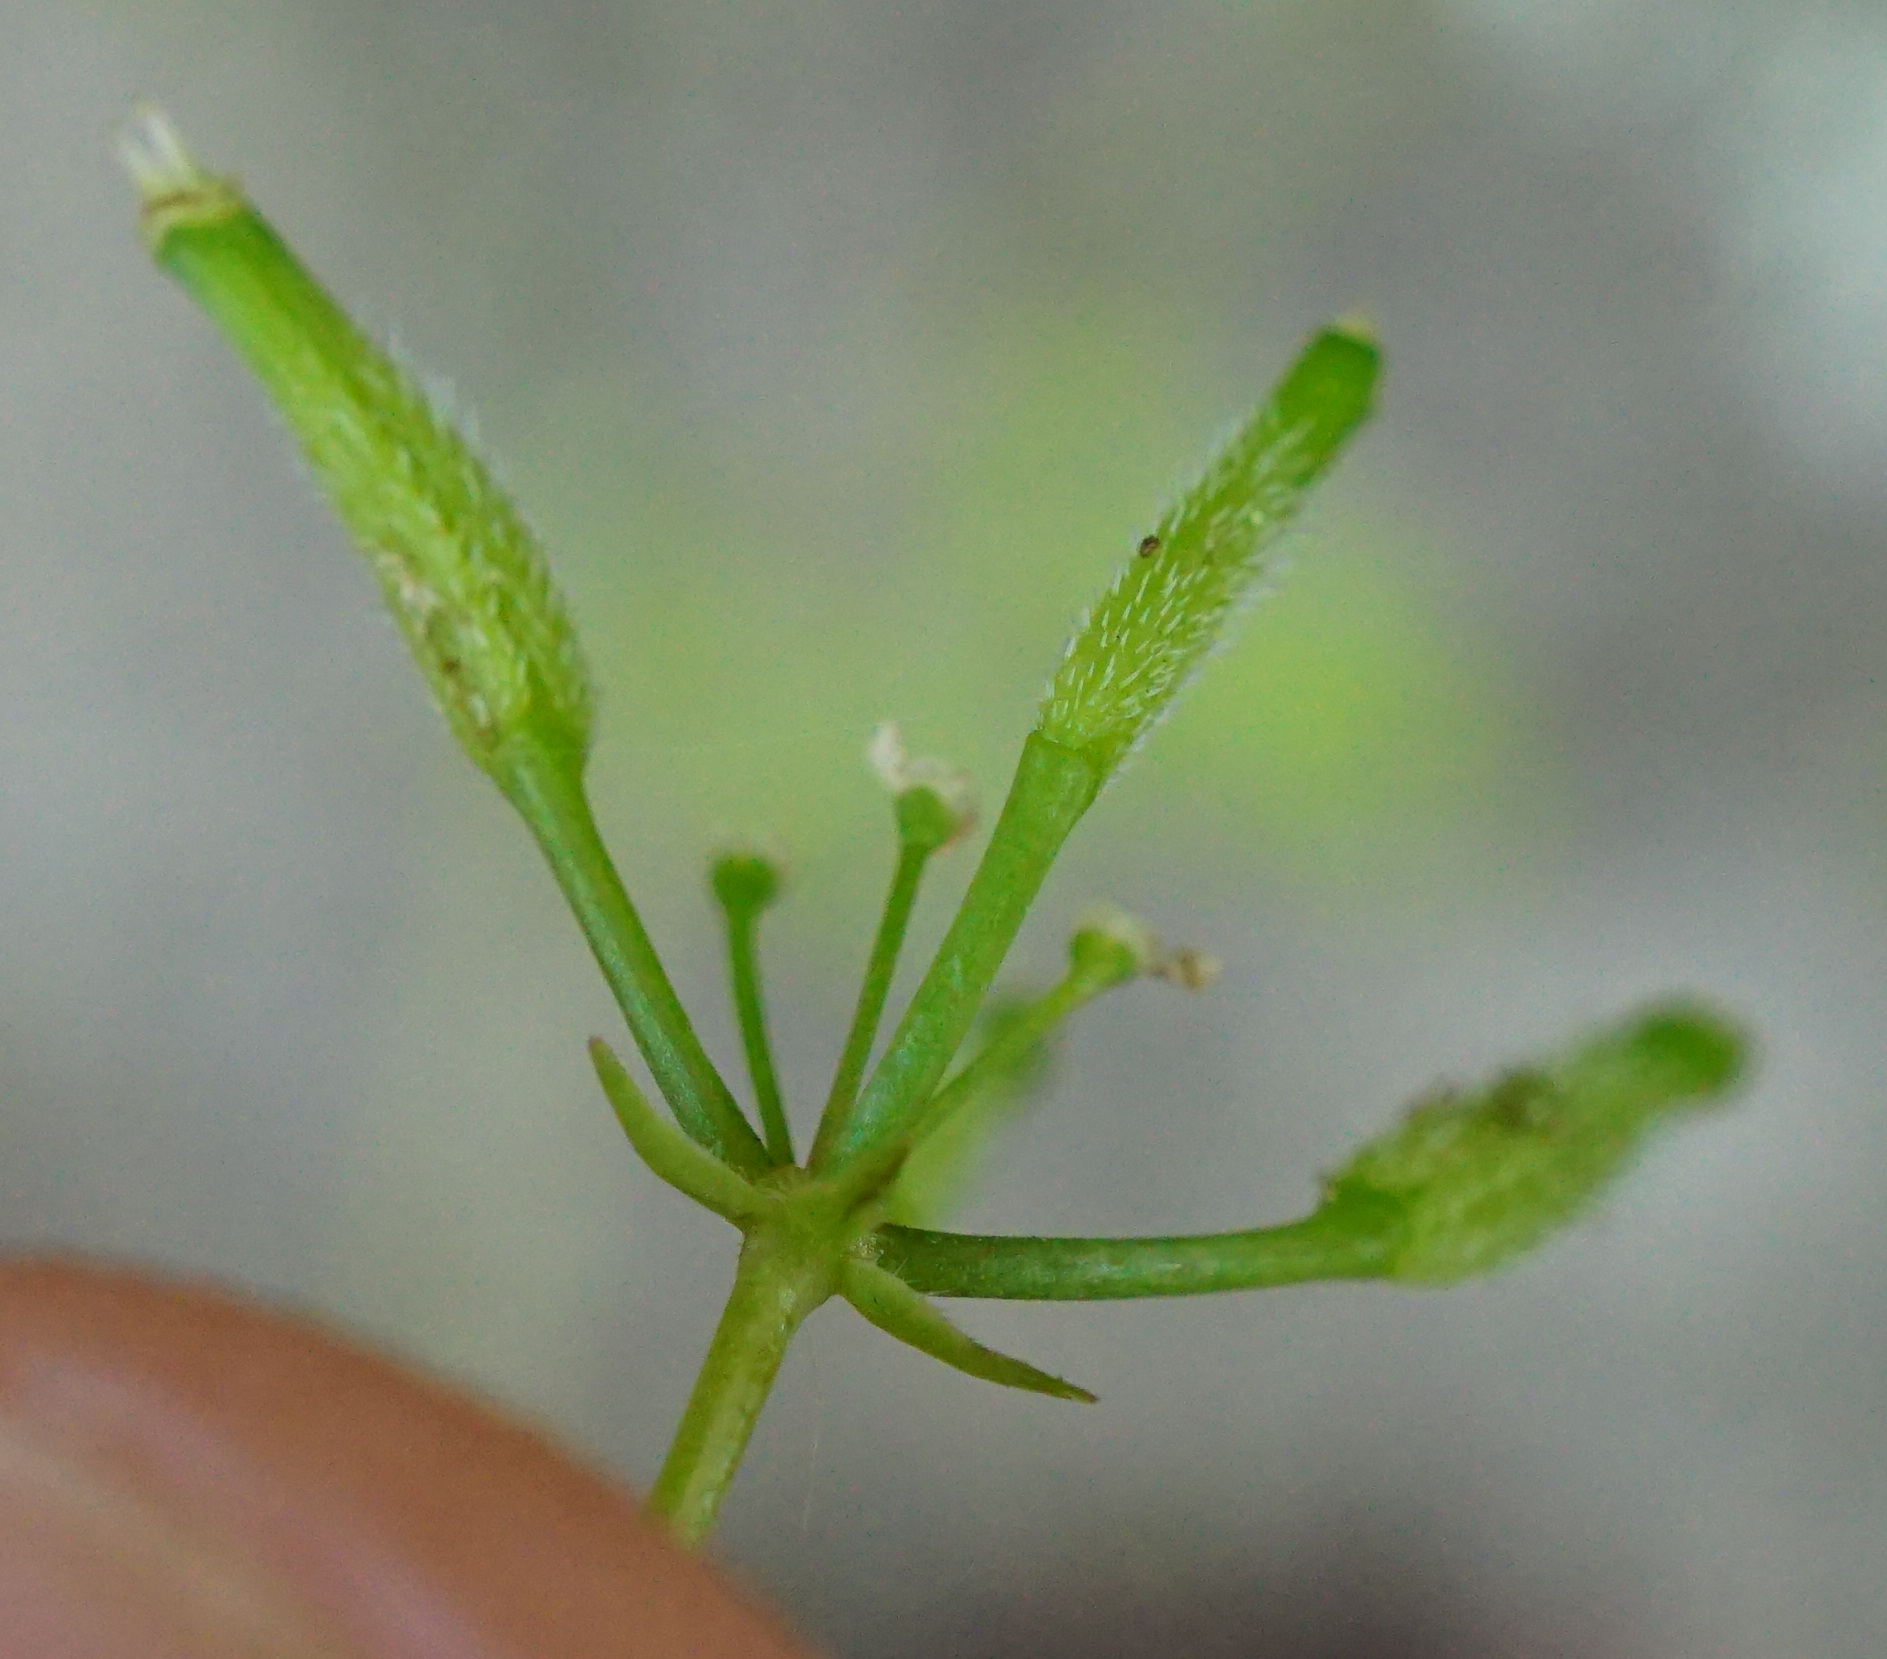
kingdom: Plantae
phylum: Tracheophyta
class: Magnoliopsida
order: Apiales
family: Apiaceae
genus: Anthriscus
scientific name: Anthriscus cerefolium
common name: Garden chervil
